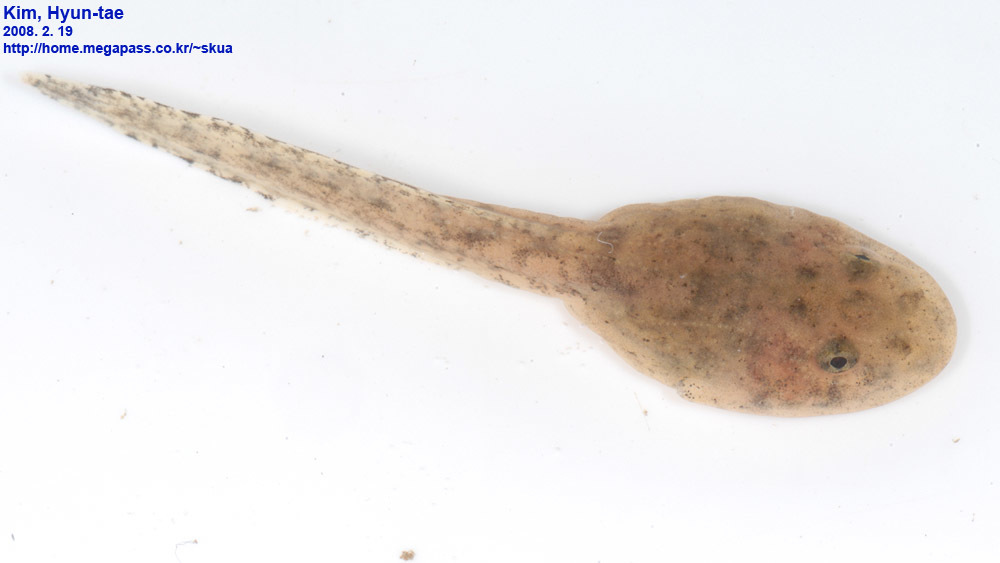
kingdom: Animalia
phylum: Chordata
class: Amphibia
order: Anura
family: Ranidae
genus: Glandirana
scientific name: Glandirana emeljanovi
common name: Northeast china rough-skinned frog
